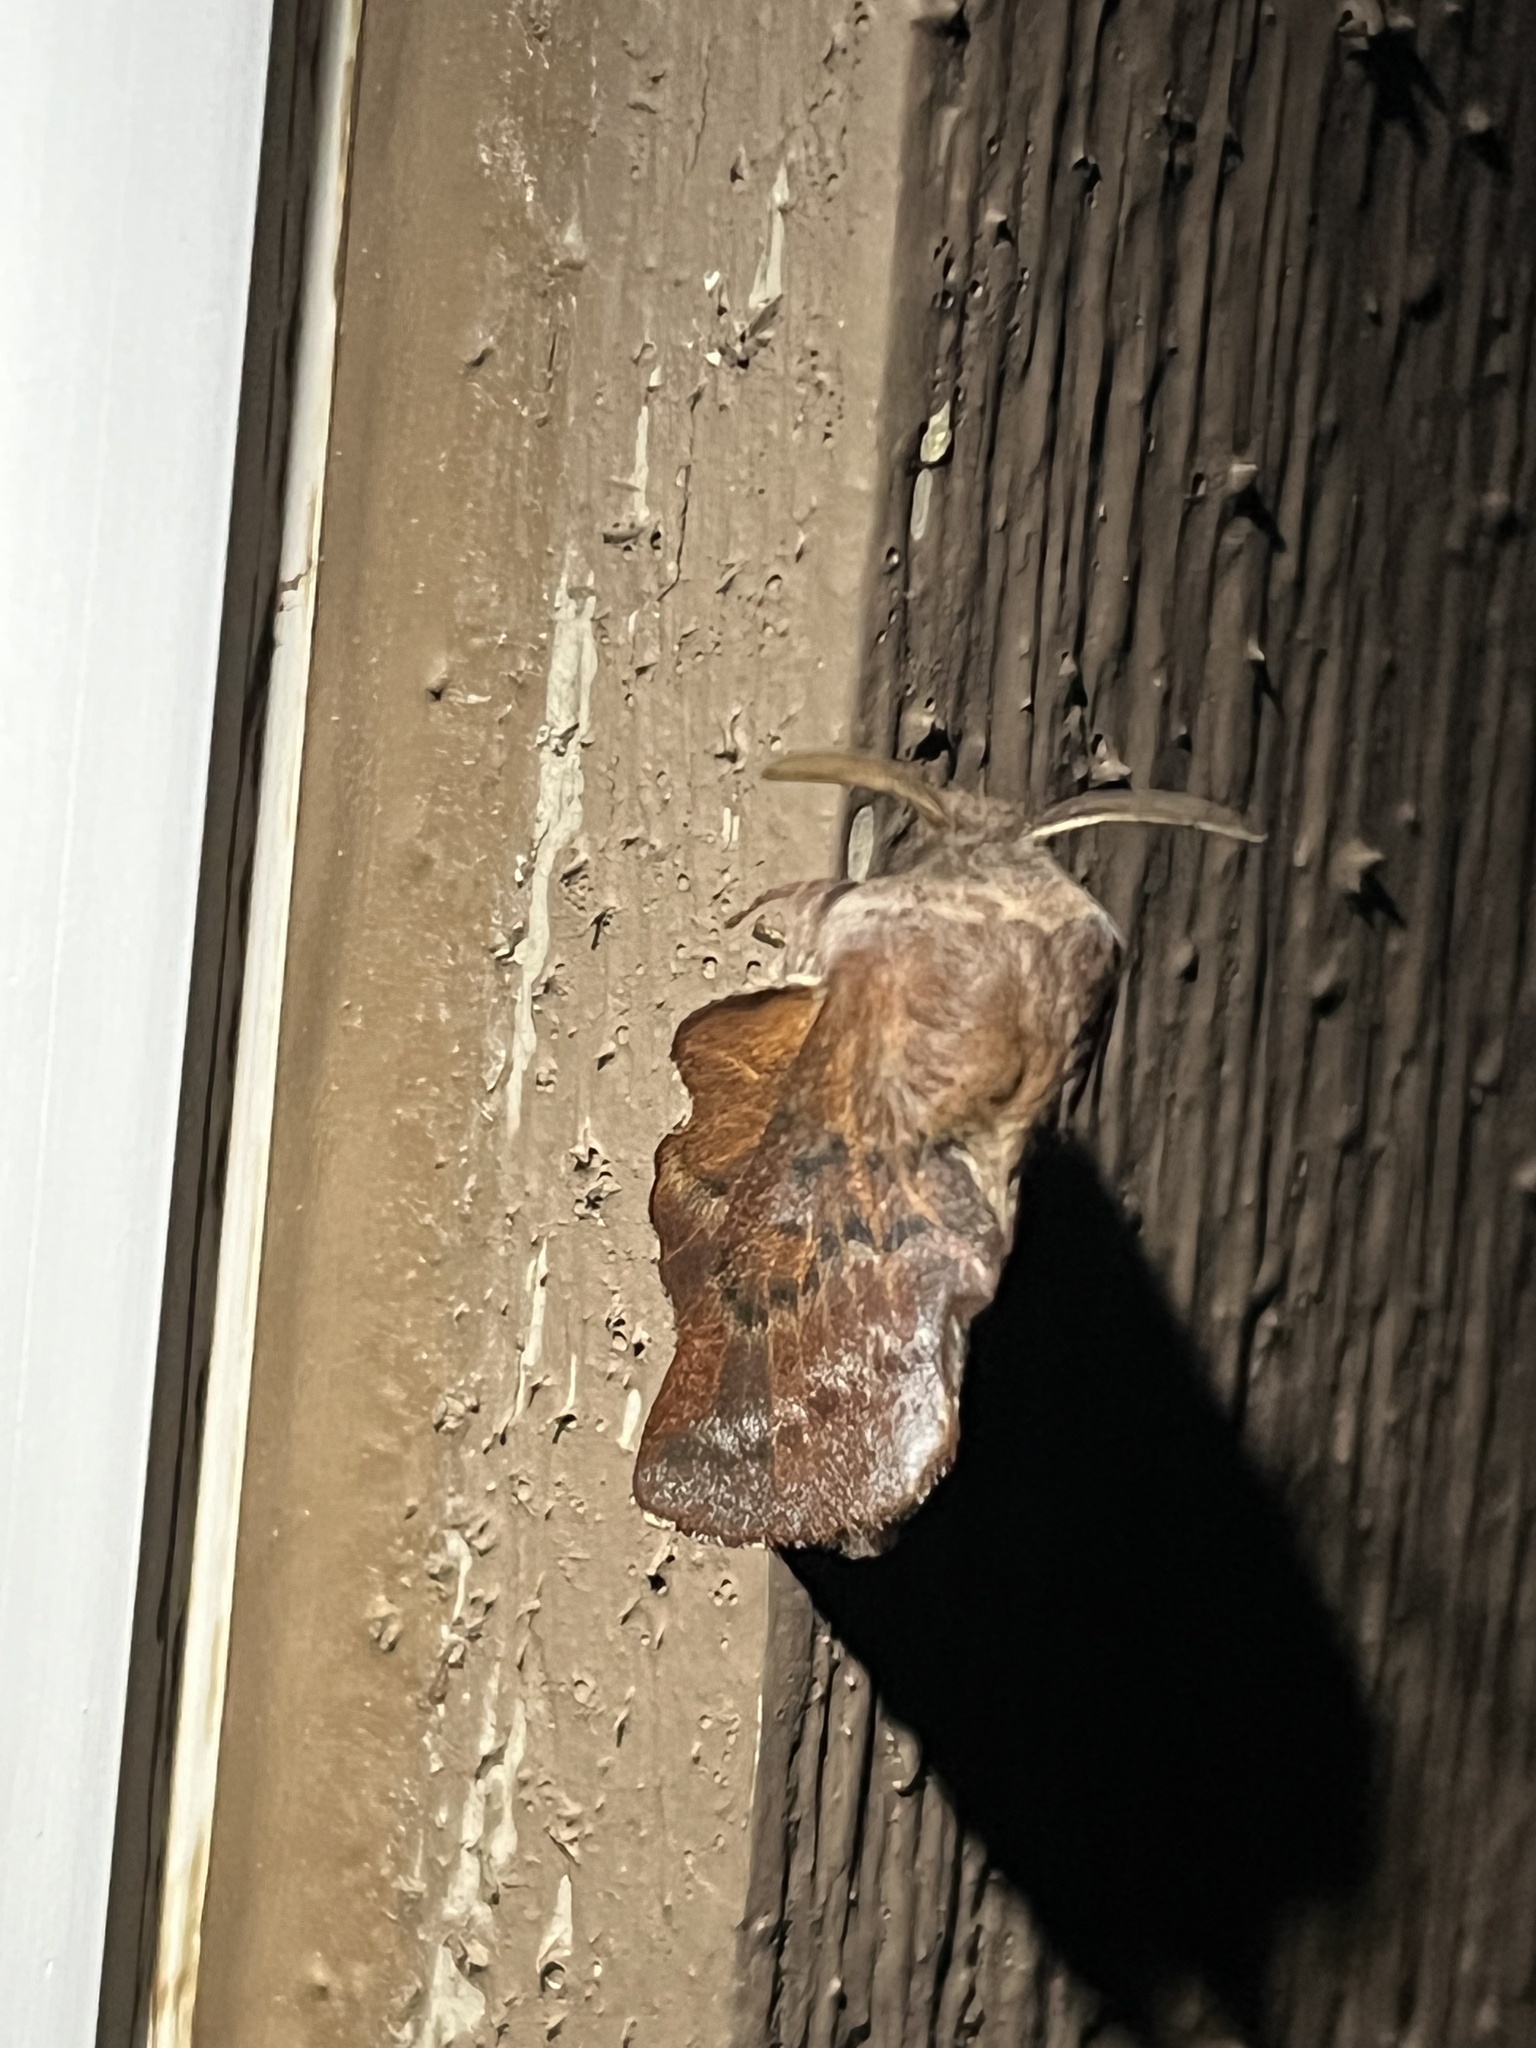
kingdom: Animalia
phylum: Arthropoda
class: Insecta
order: Lepidoptera
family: Lasiocampidae
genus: Phyllodesma
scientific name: Phyllodesma americana
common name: American lappet moth
